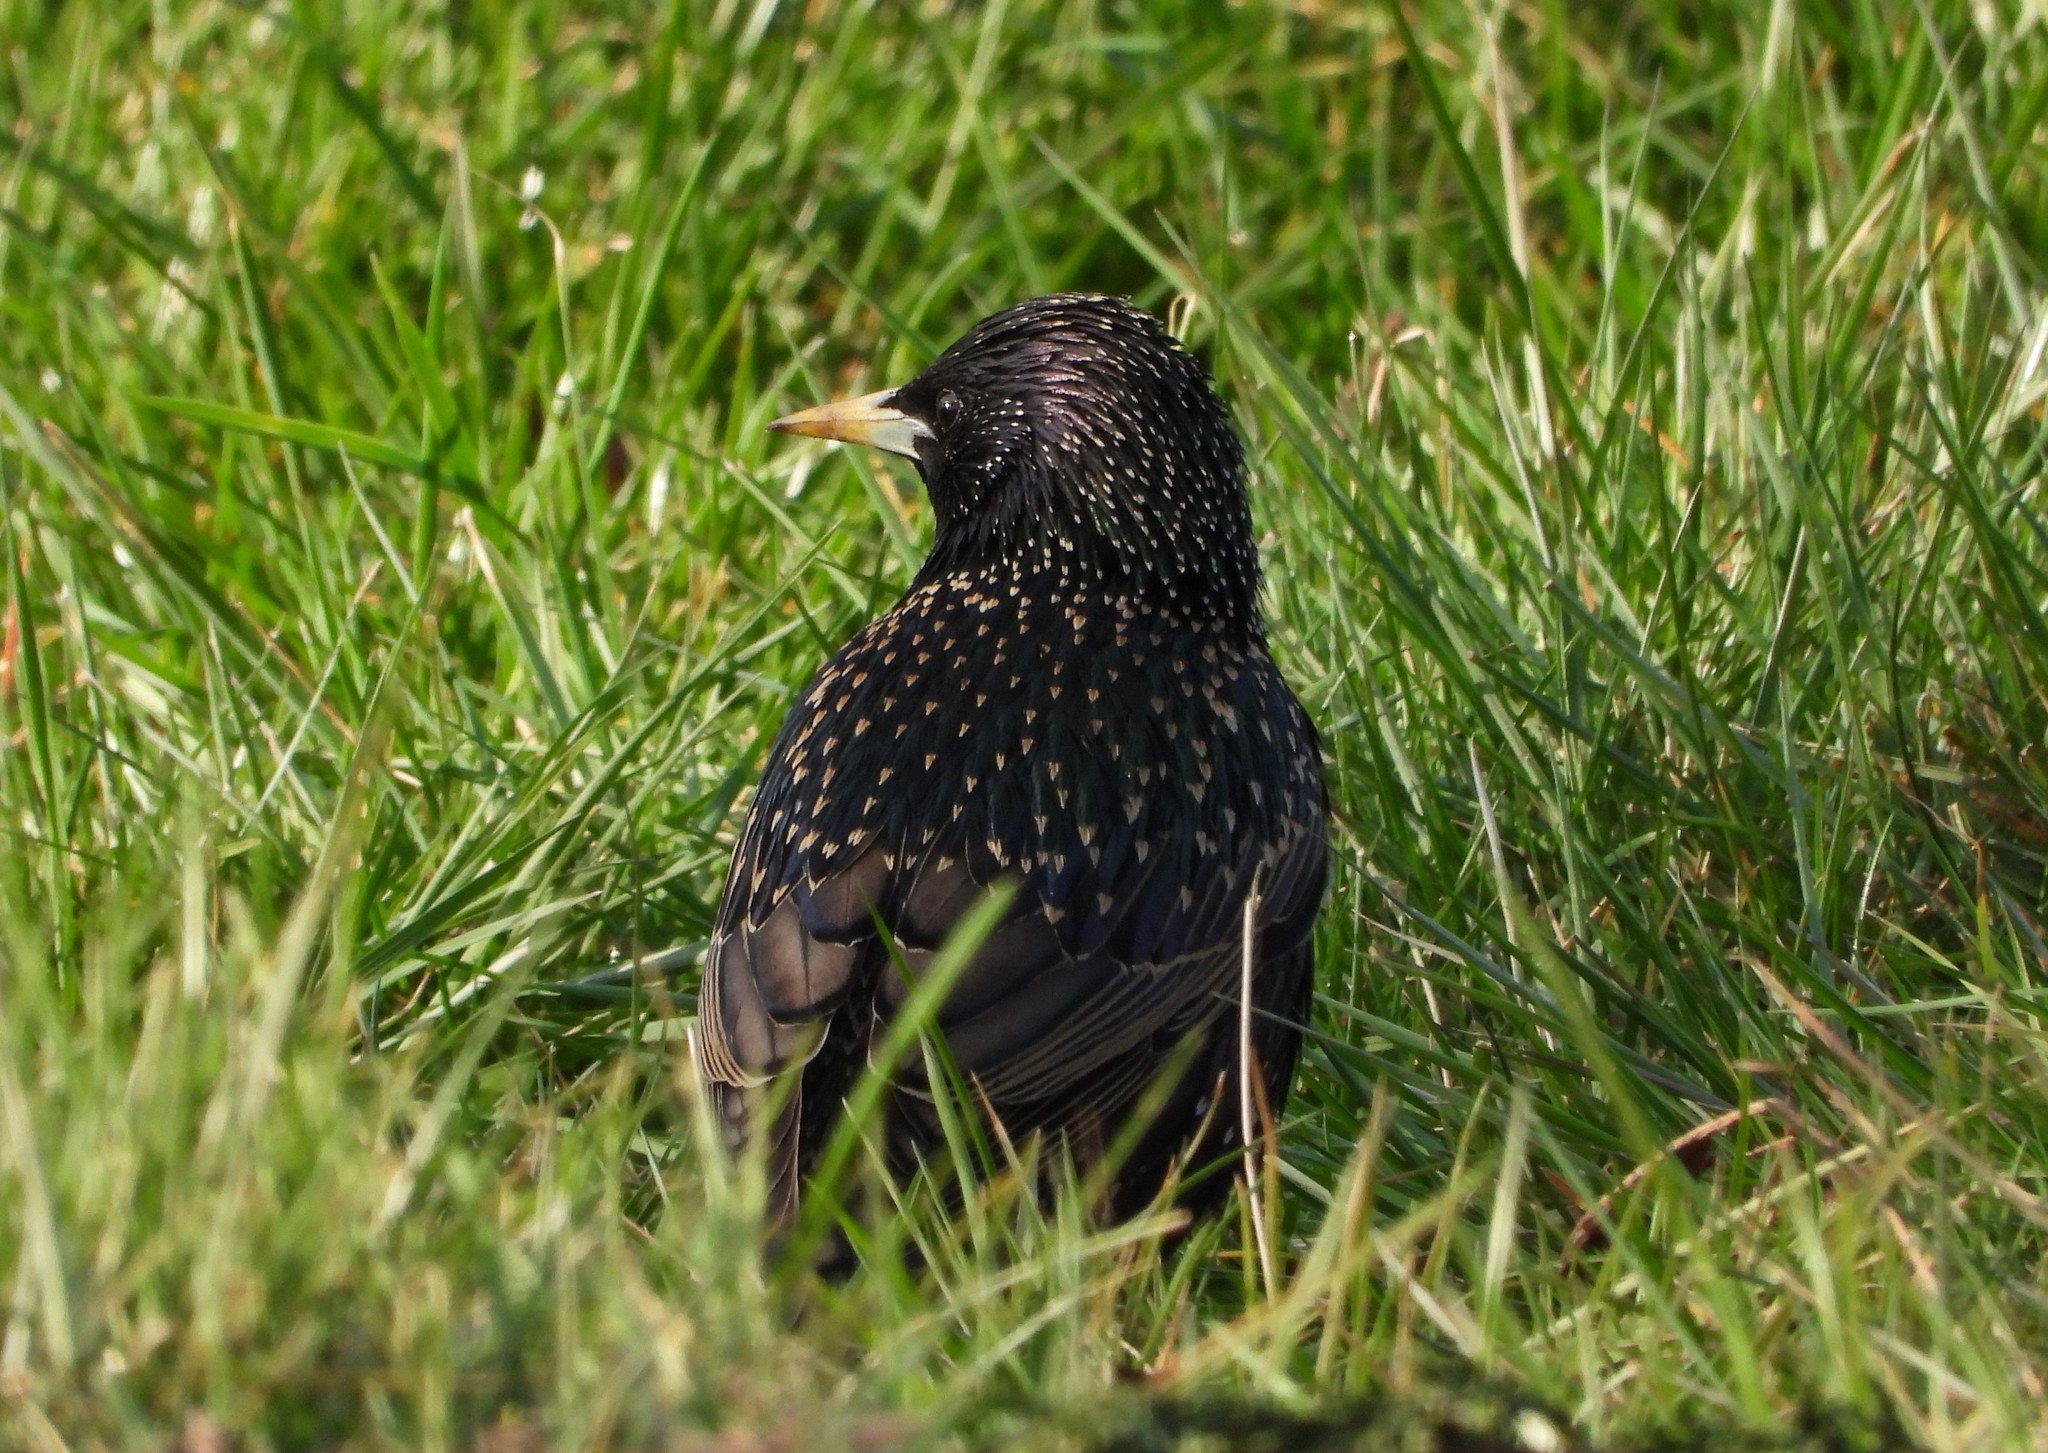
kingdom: Animalia
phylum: Chordata
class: Aves
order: Passeriformes
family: Sturnidae
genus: Sturnus
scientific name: Sturnus vulgaris
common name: Common starling
